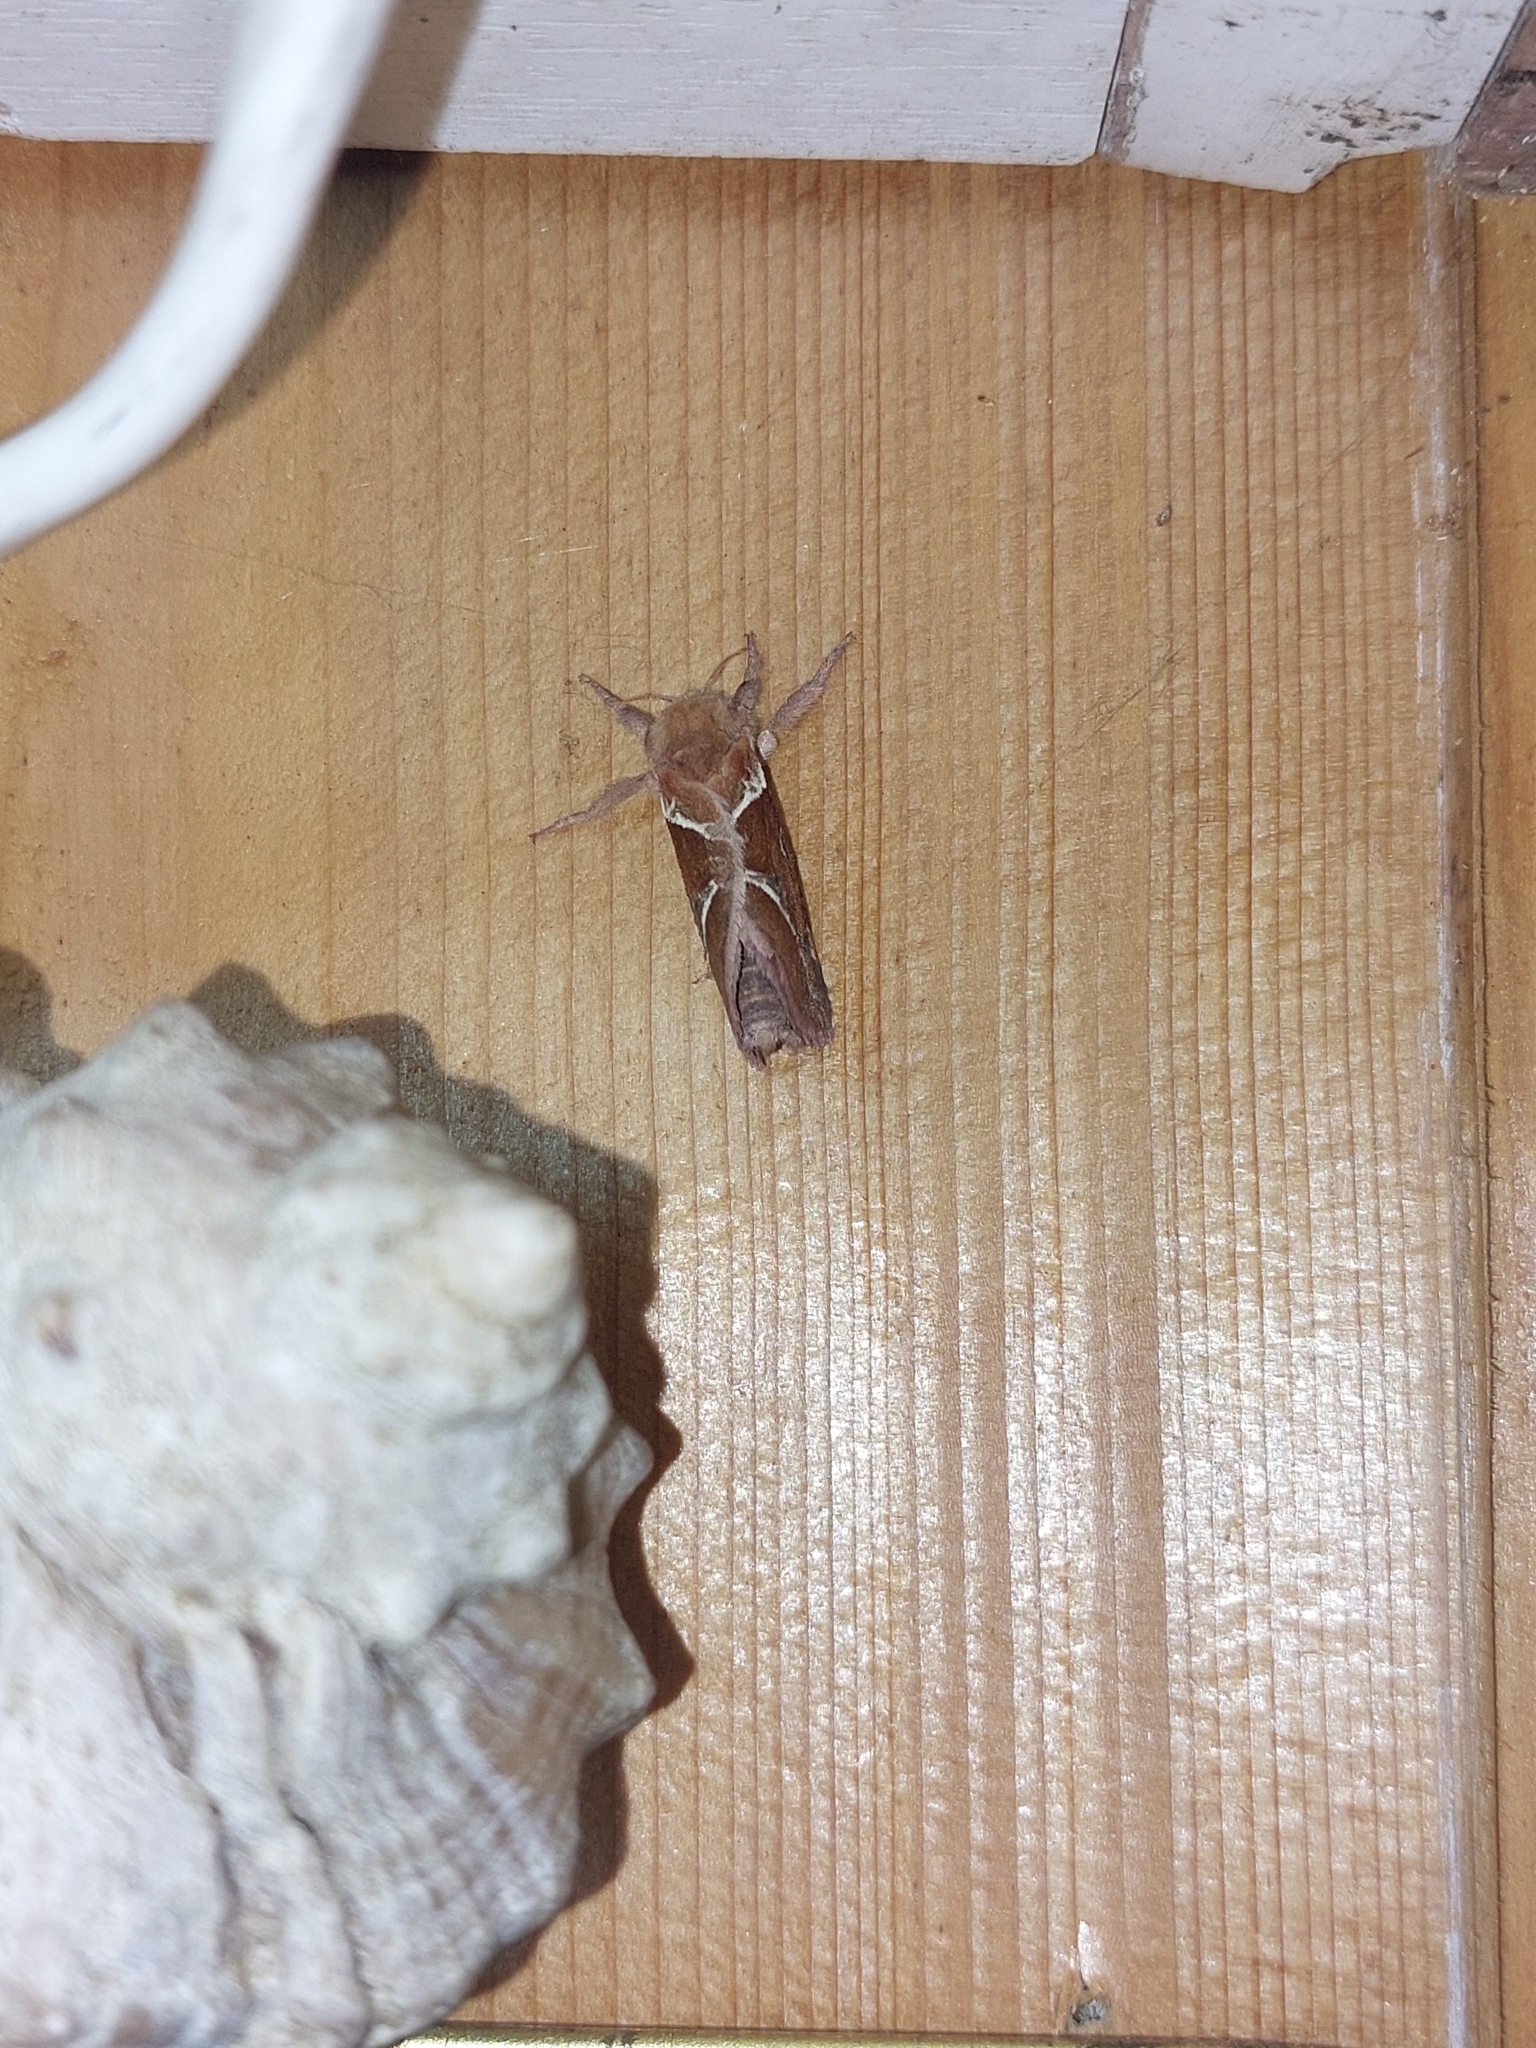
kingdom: Animalia
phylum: Arthropoda
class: Insecta
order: Lepidoptera
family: Hepialidae
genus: Triodia
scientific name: Triodia sylvina
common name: Orange swift
